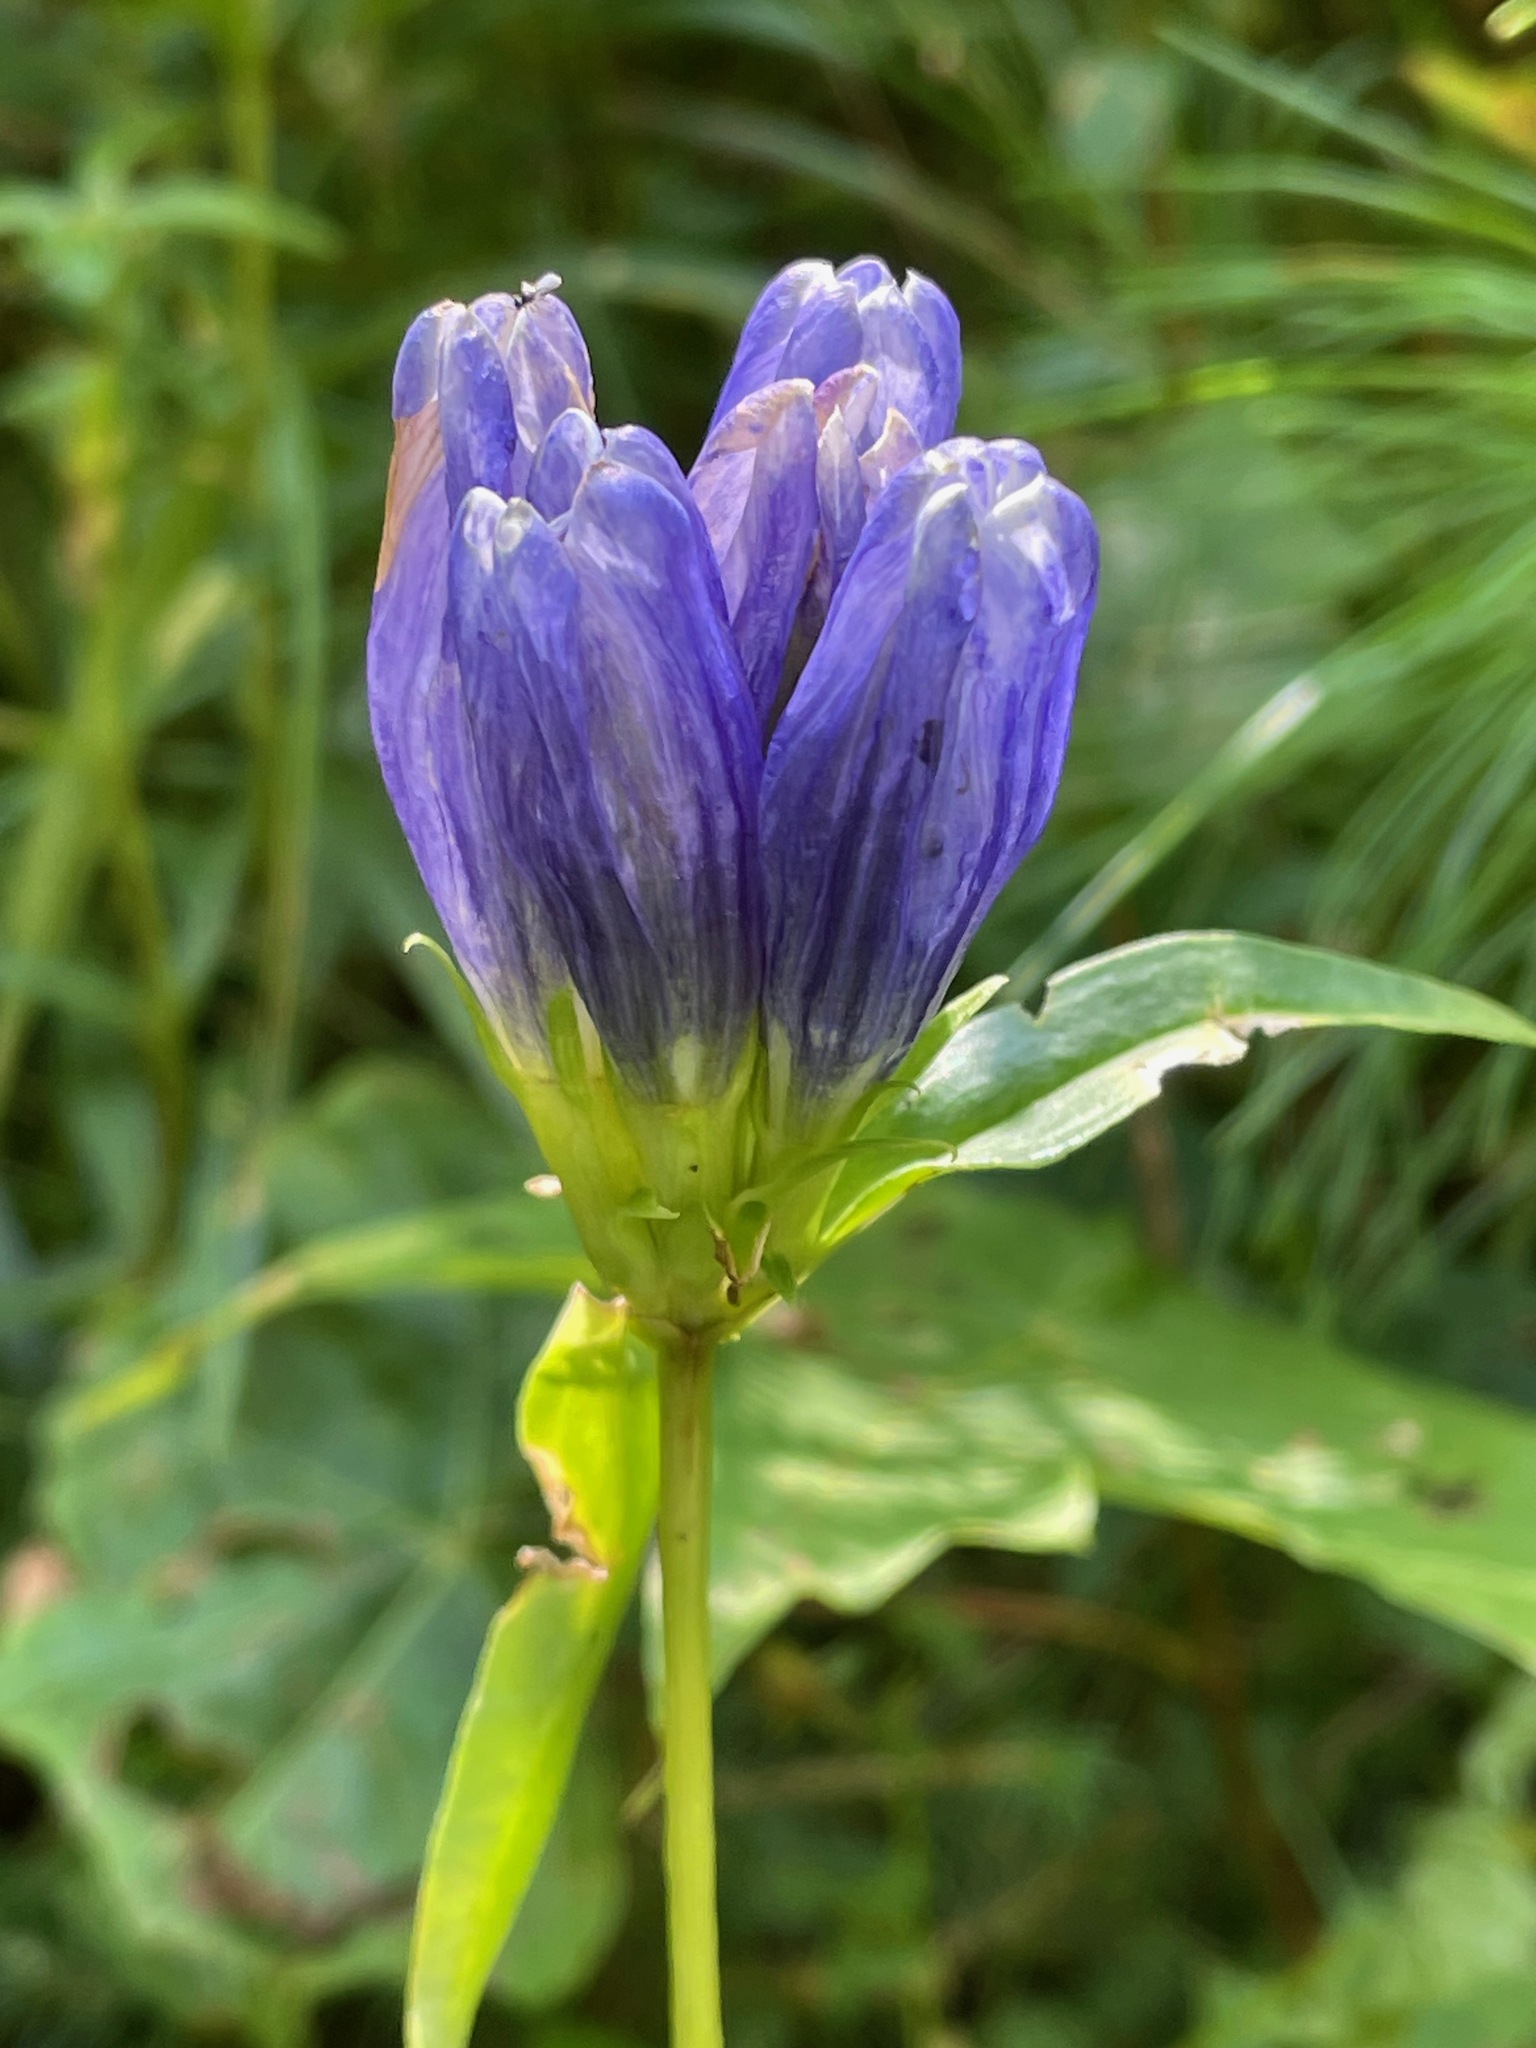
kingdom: Plantae
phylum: Tracheophyta
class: Magnoliopsida
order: Gentianales
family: Gentianaceae
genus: Gentiana
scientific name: Gentiana linearis
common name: Bastard gentian
